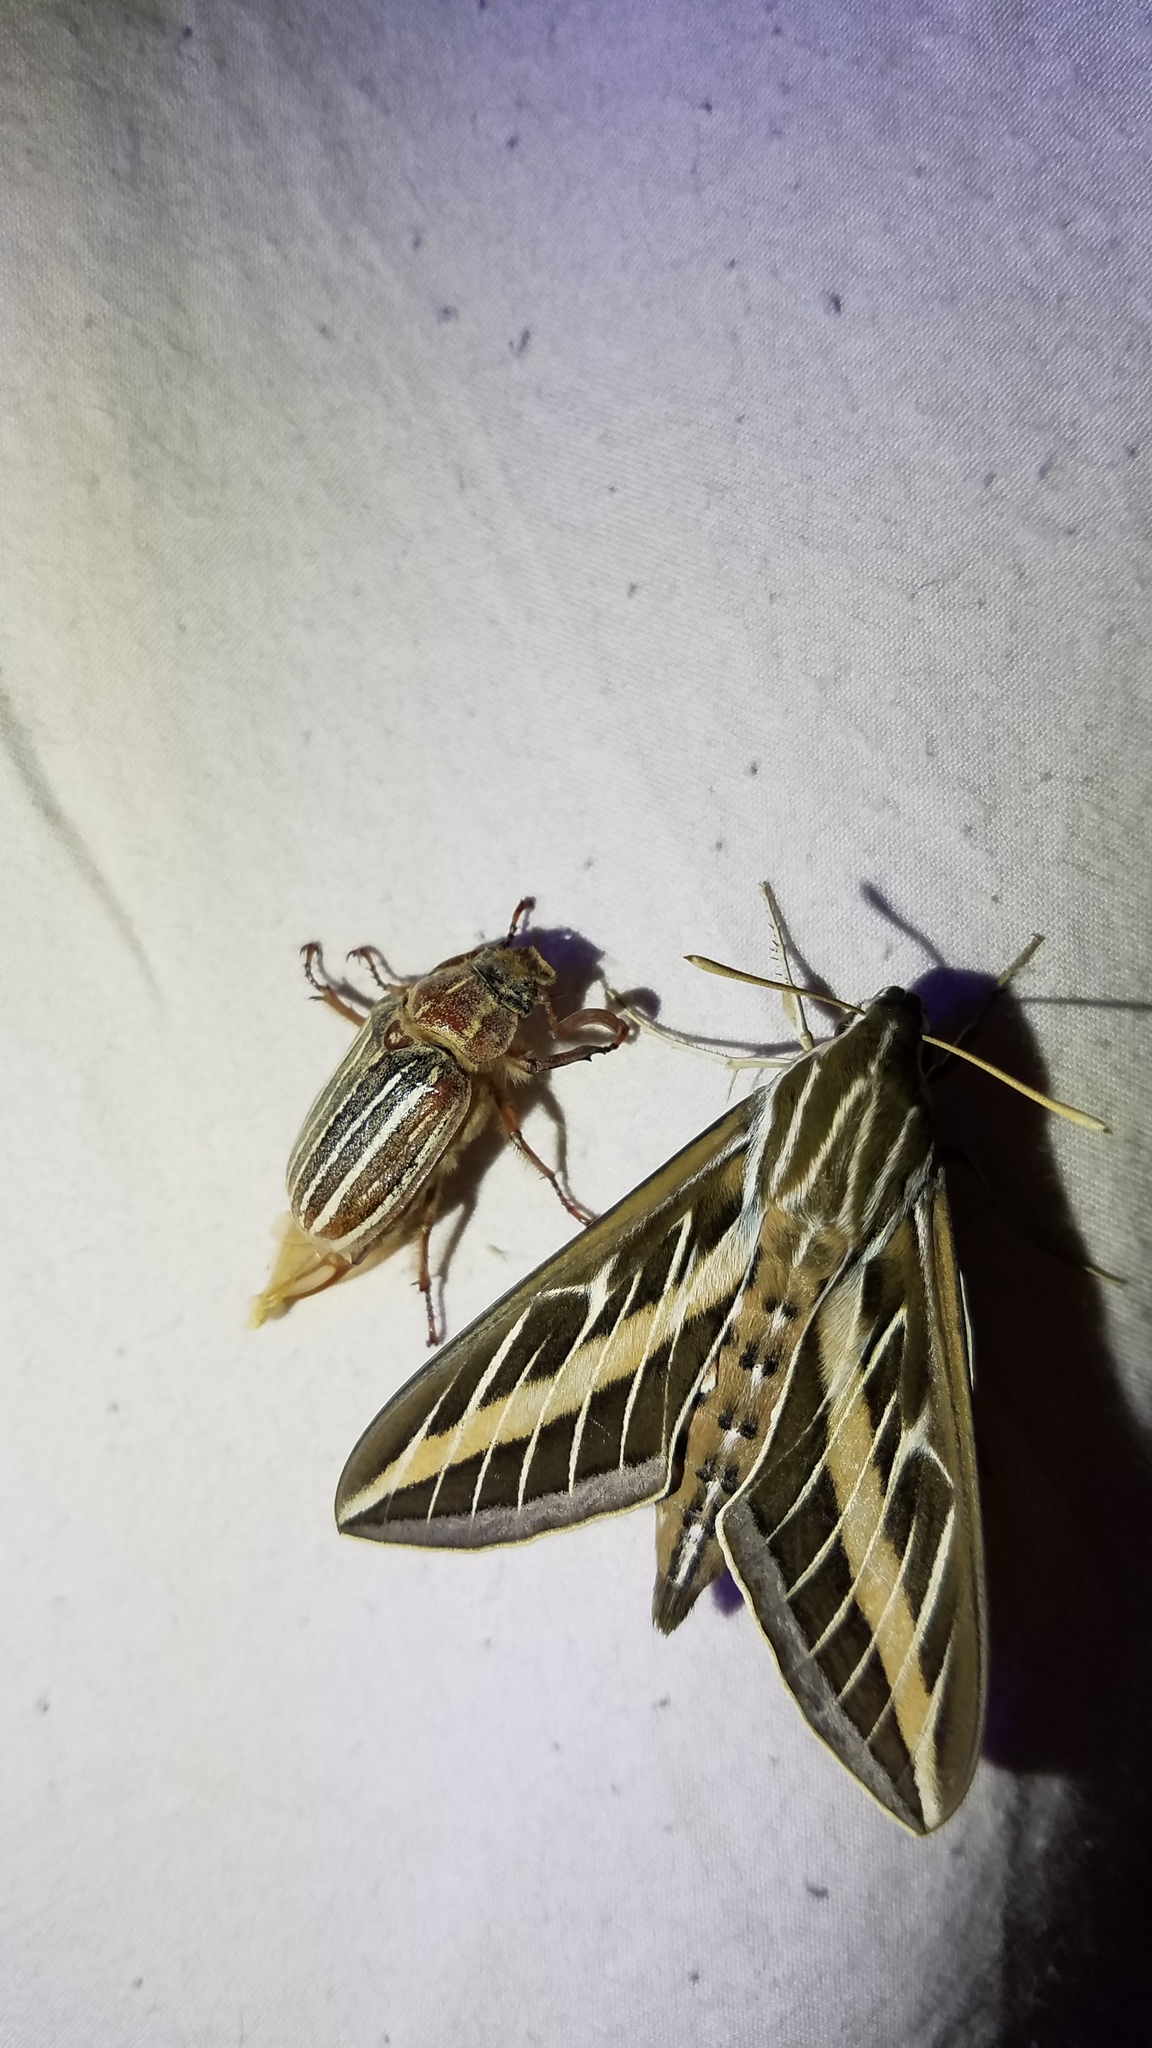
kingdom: Animalia
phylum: Arthropoda
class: Insecta
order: Lepidoptera
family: Sphingidae
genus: Hyles
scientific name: Hyles lineata
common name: White-lined sphinx
